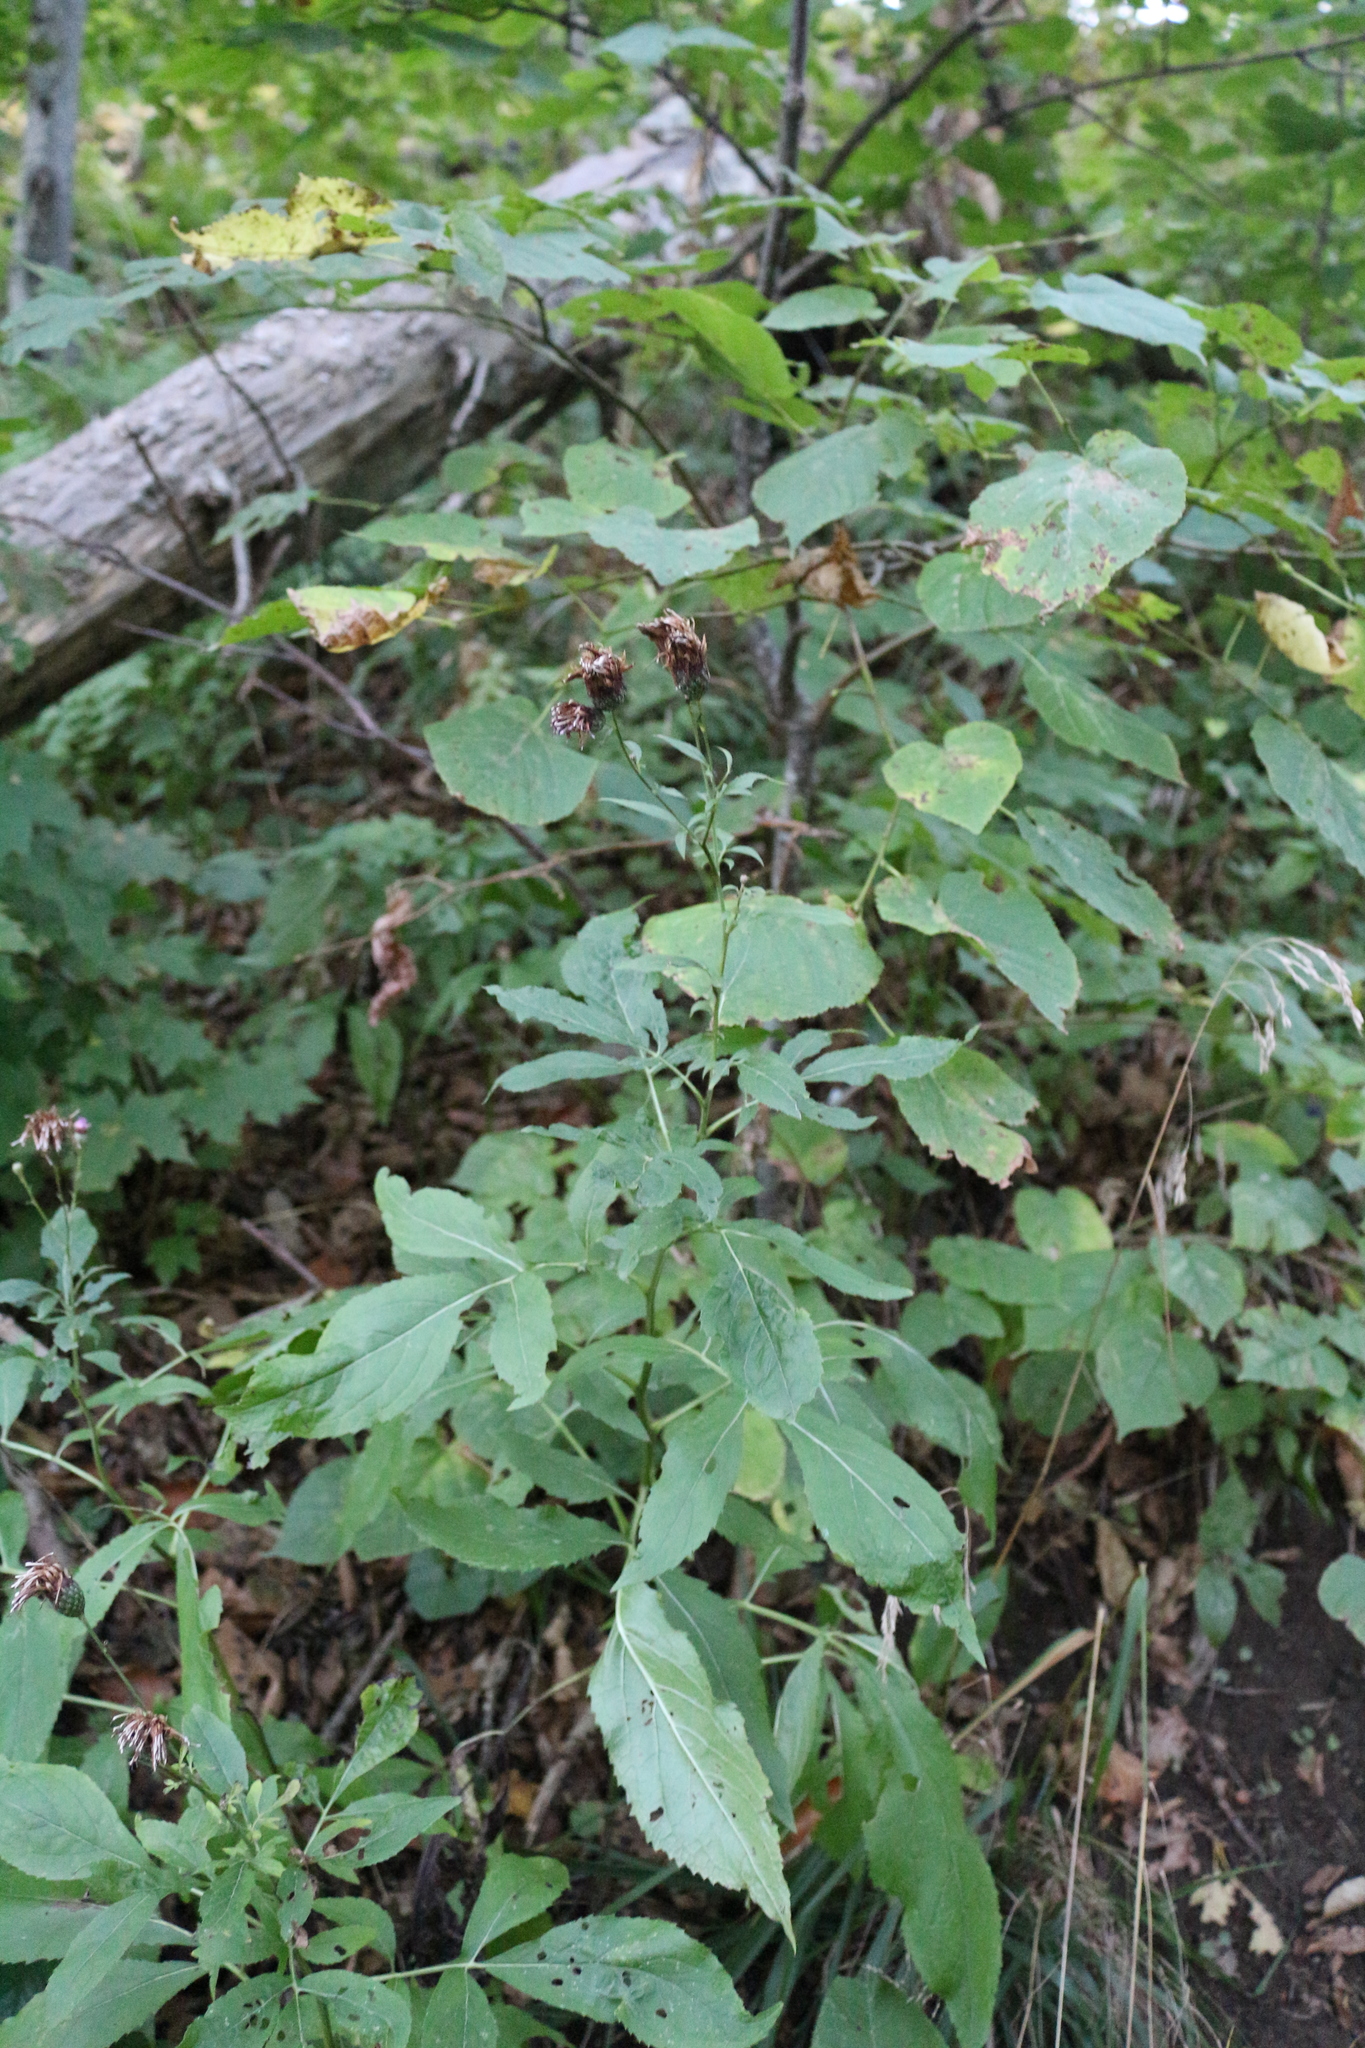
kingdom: Plantae
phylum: Tracheophyta
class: Magnoliopsida
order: Asterales
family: Asteraceae
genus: Klasea
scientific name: Klasea quinquefolia
